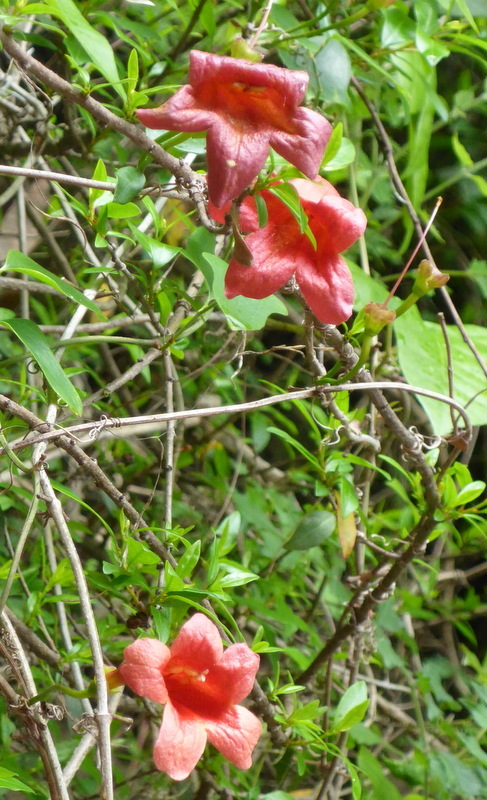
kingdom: Plantae
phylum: Tracheophyta
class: Magnoliopsida
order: Lamiales
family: Bignoniaceae
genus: Bignonia
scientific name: Bignonia capreolata
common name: Crossvine
